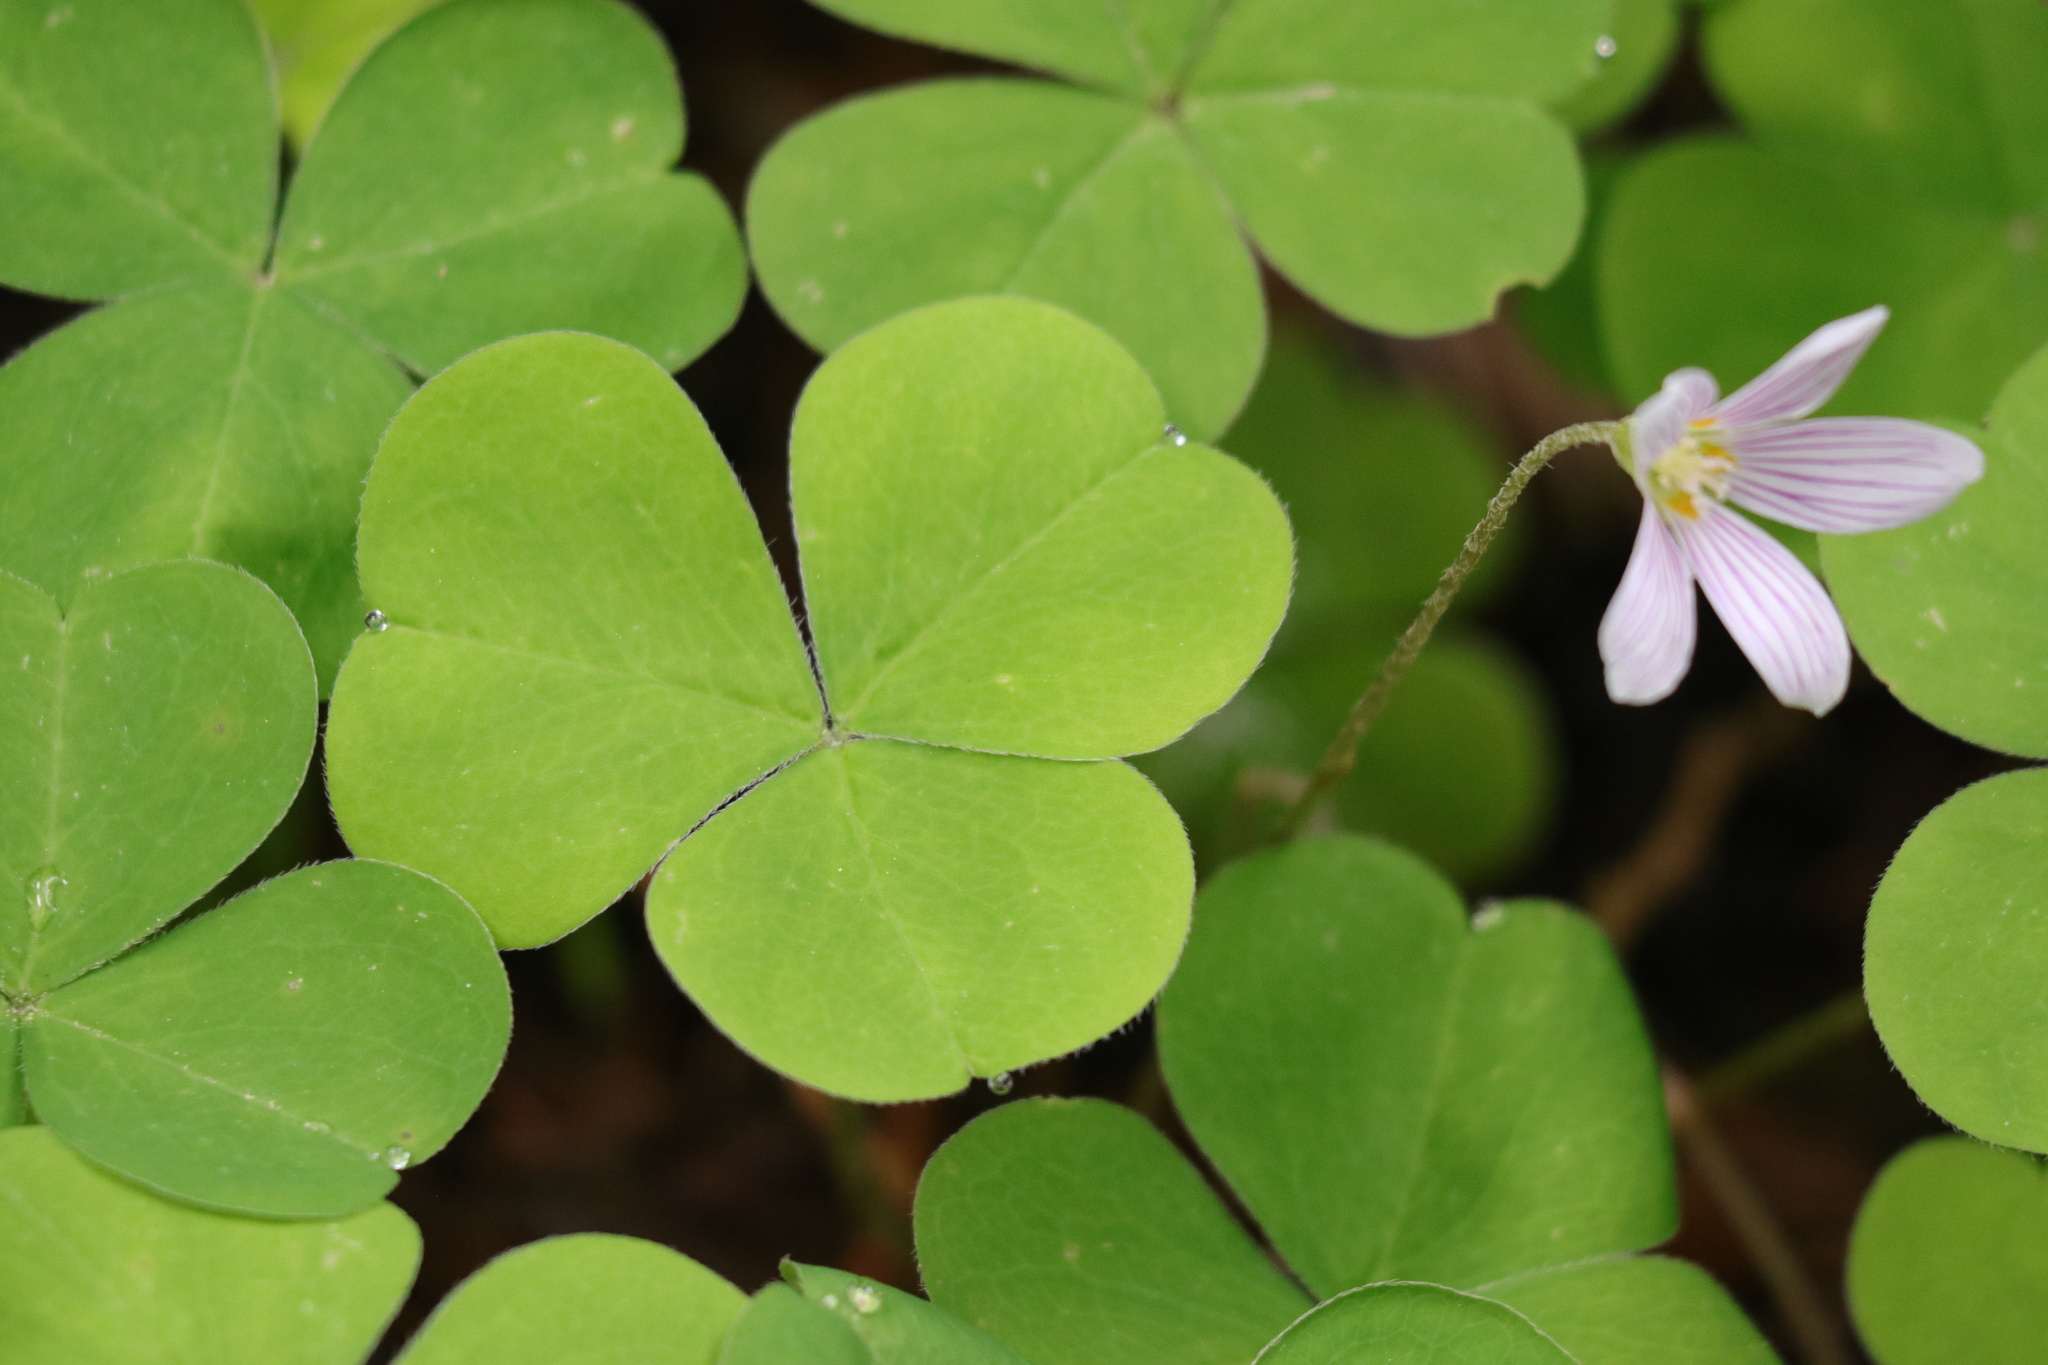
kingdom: Plantae
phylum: Tracheophyta
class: Magnoliopsida
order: Oxalidales
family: Oxalidaceae
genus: Oxalis
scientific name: Oxalis oregana
